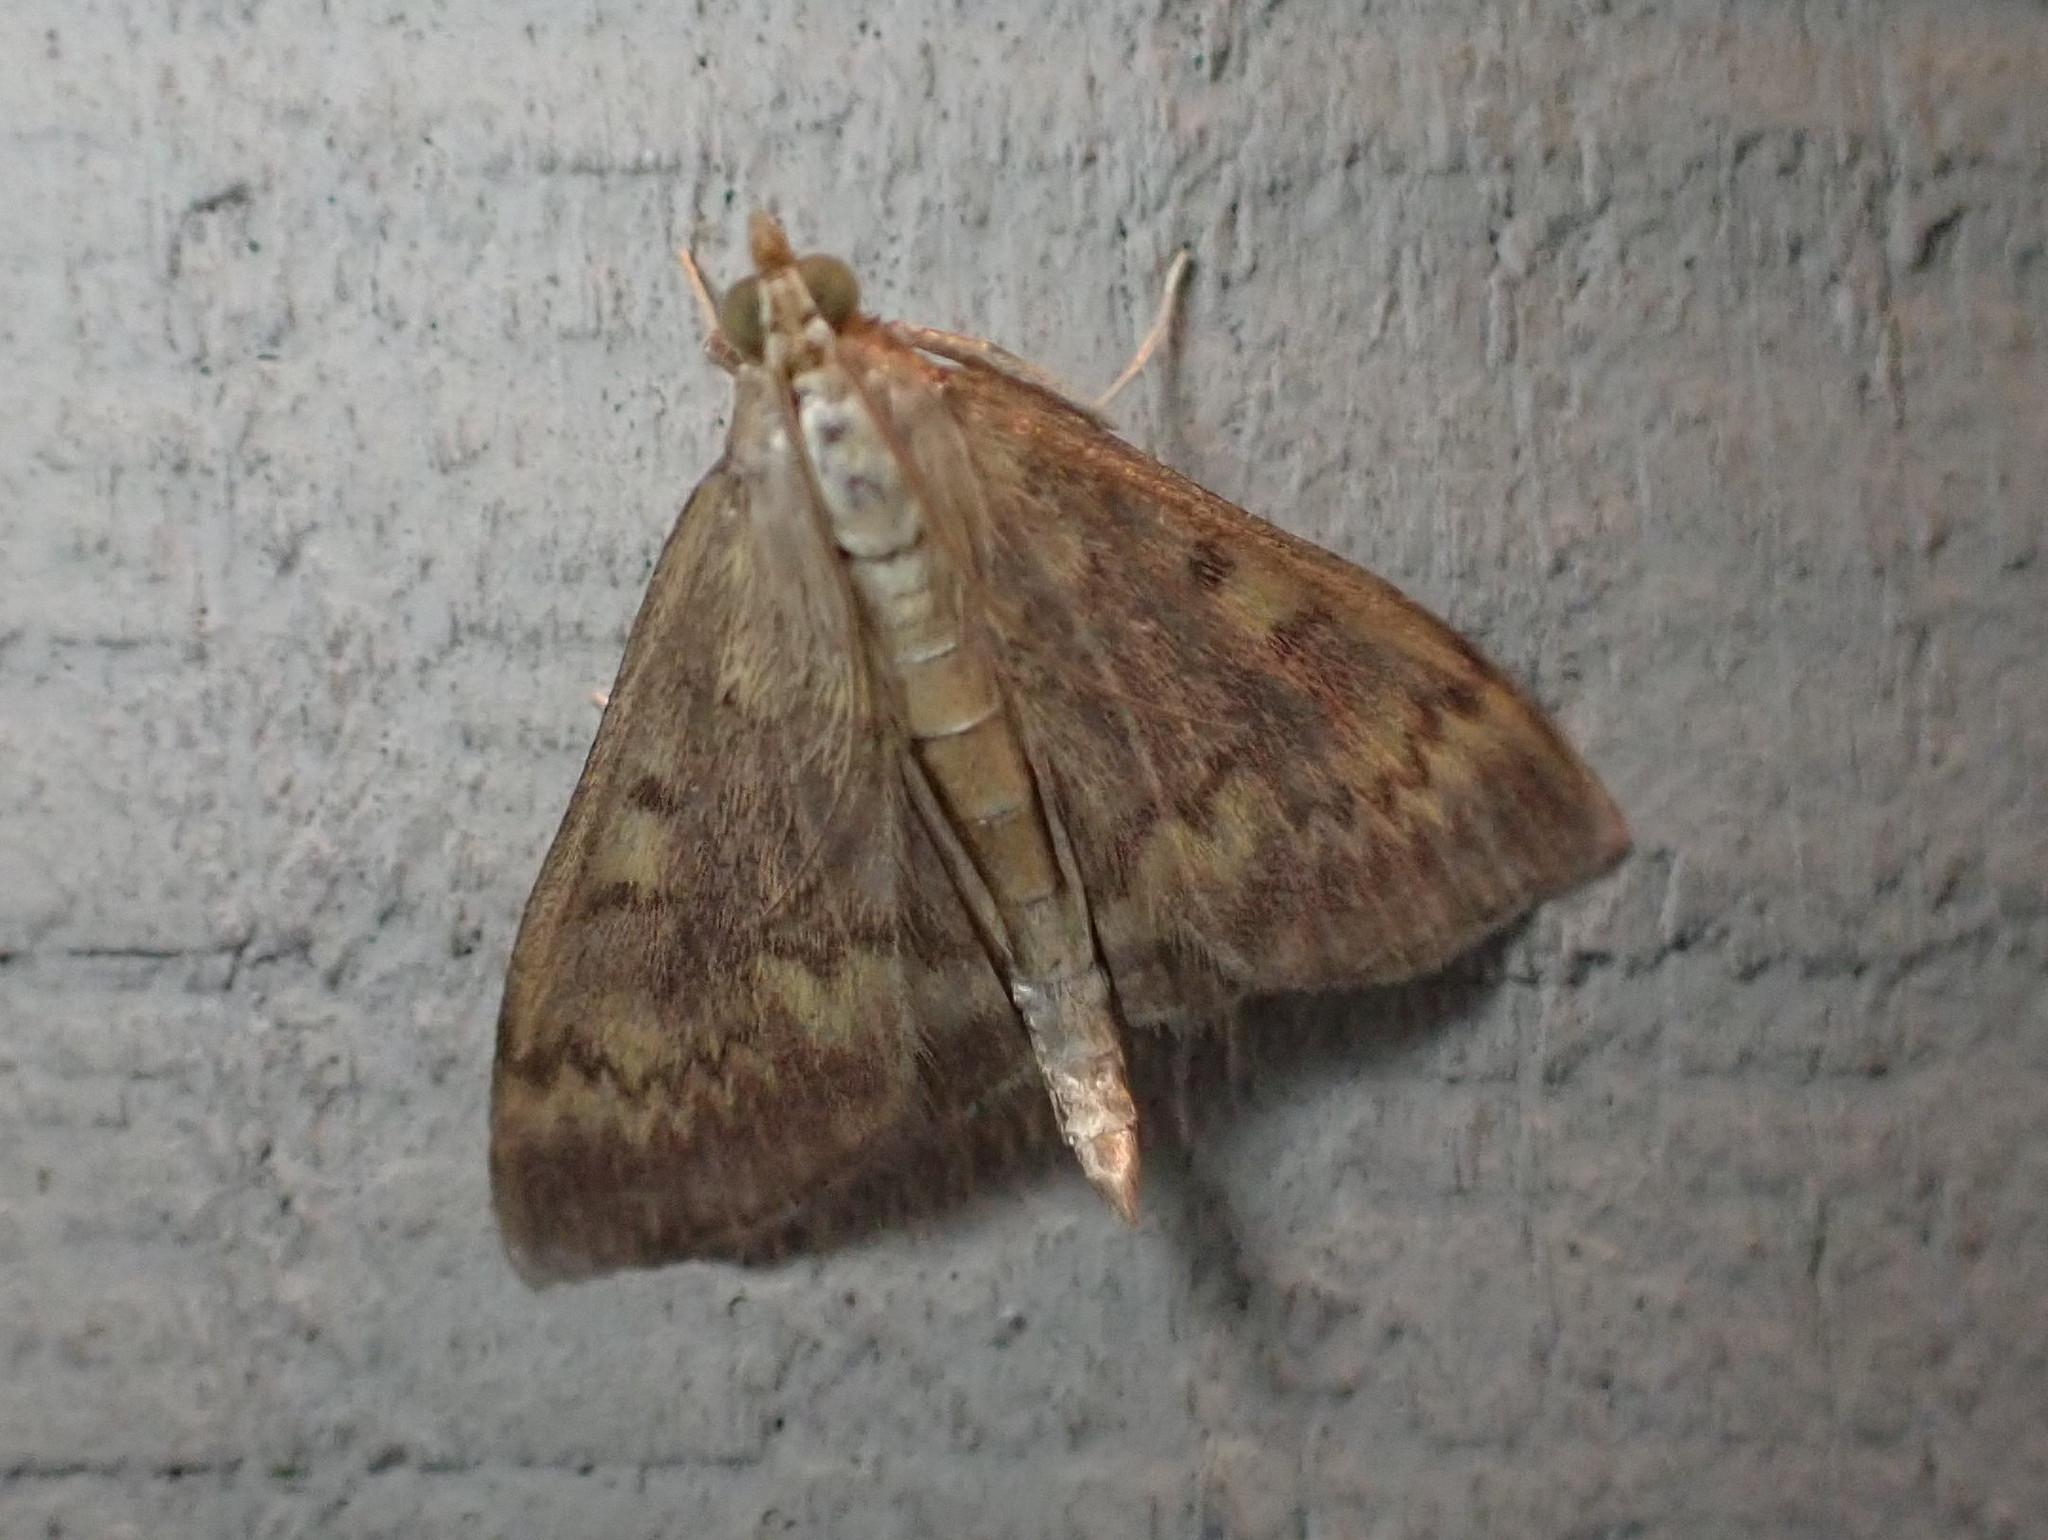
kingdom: Animalia
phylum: Arthropoda
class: Insecta
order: Lepidoptera
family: Crambidae
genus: Ostrinia
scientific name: Ostrinia nubilalis
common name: European corn borer
